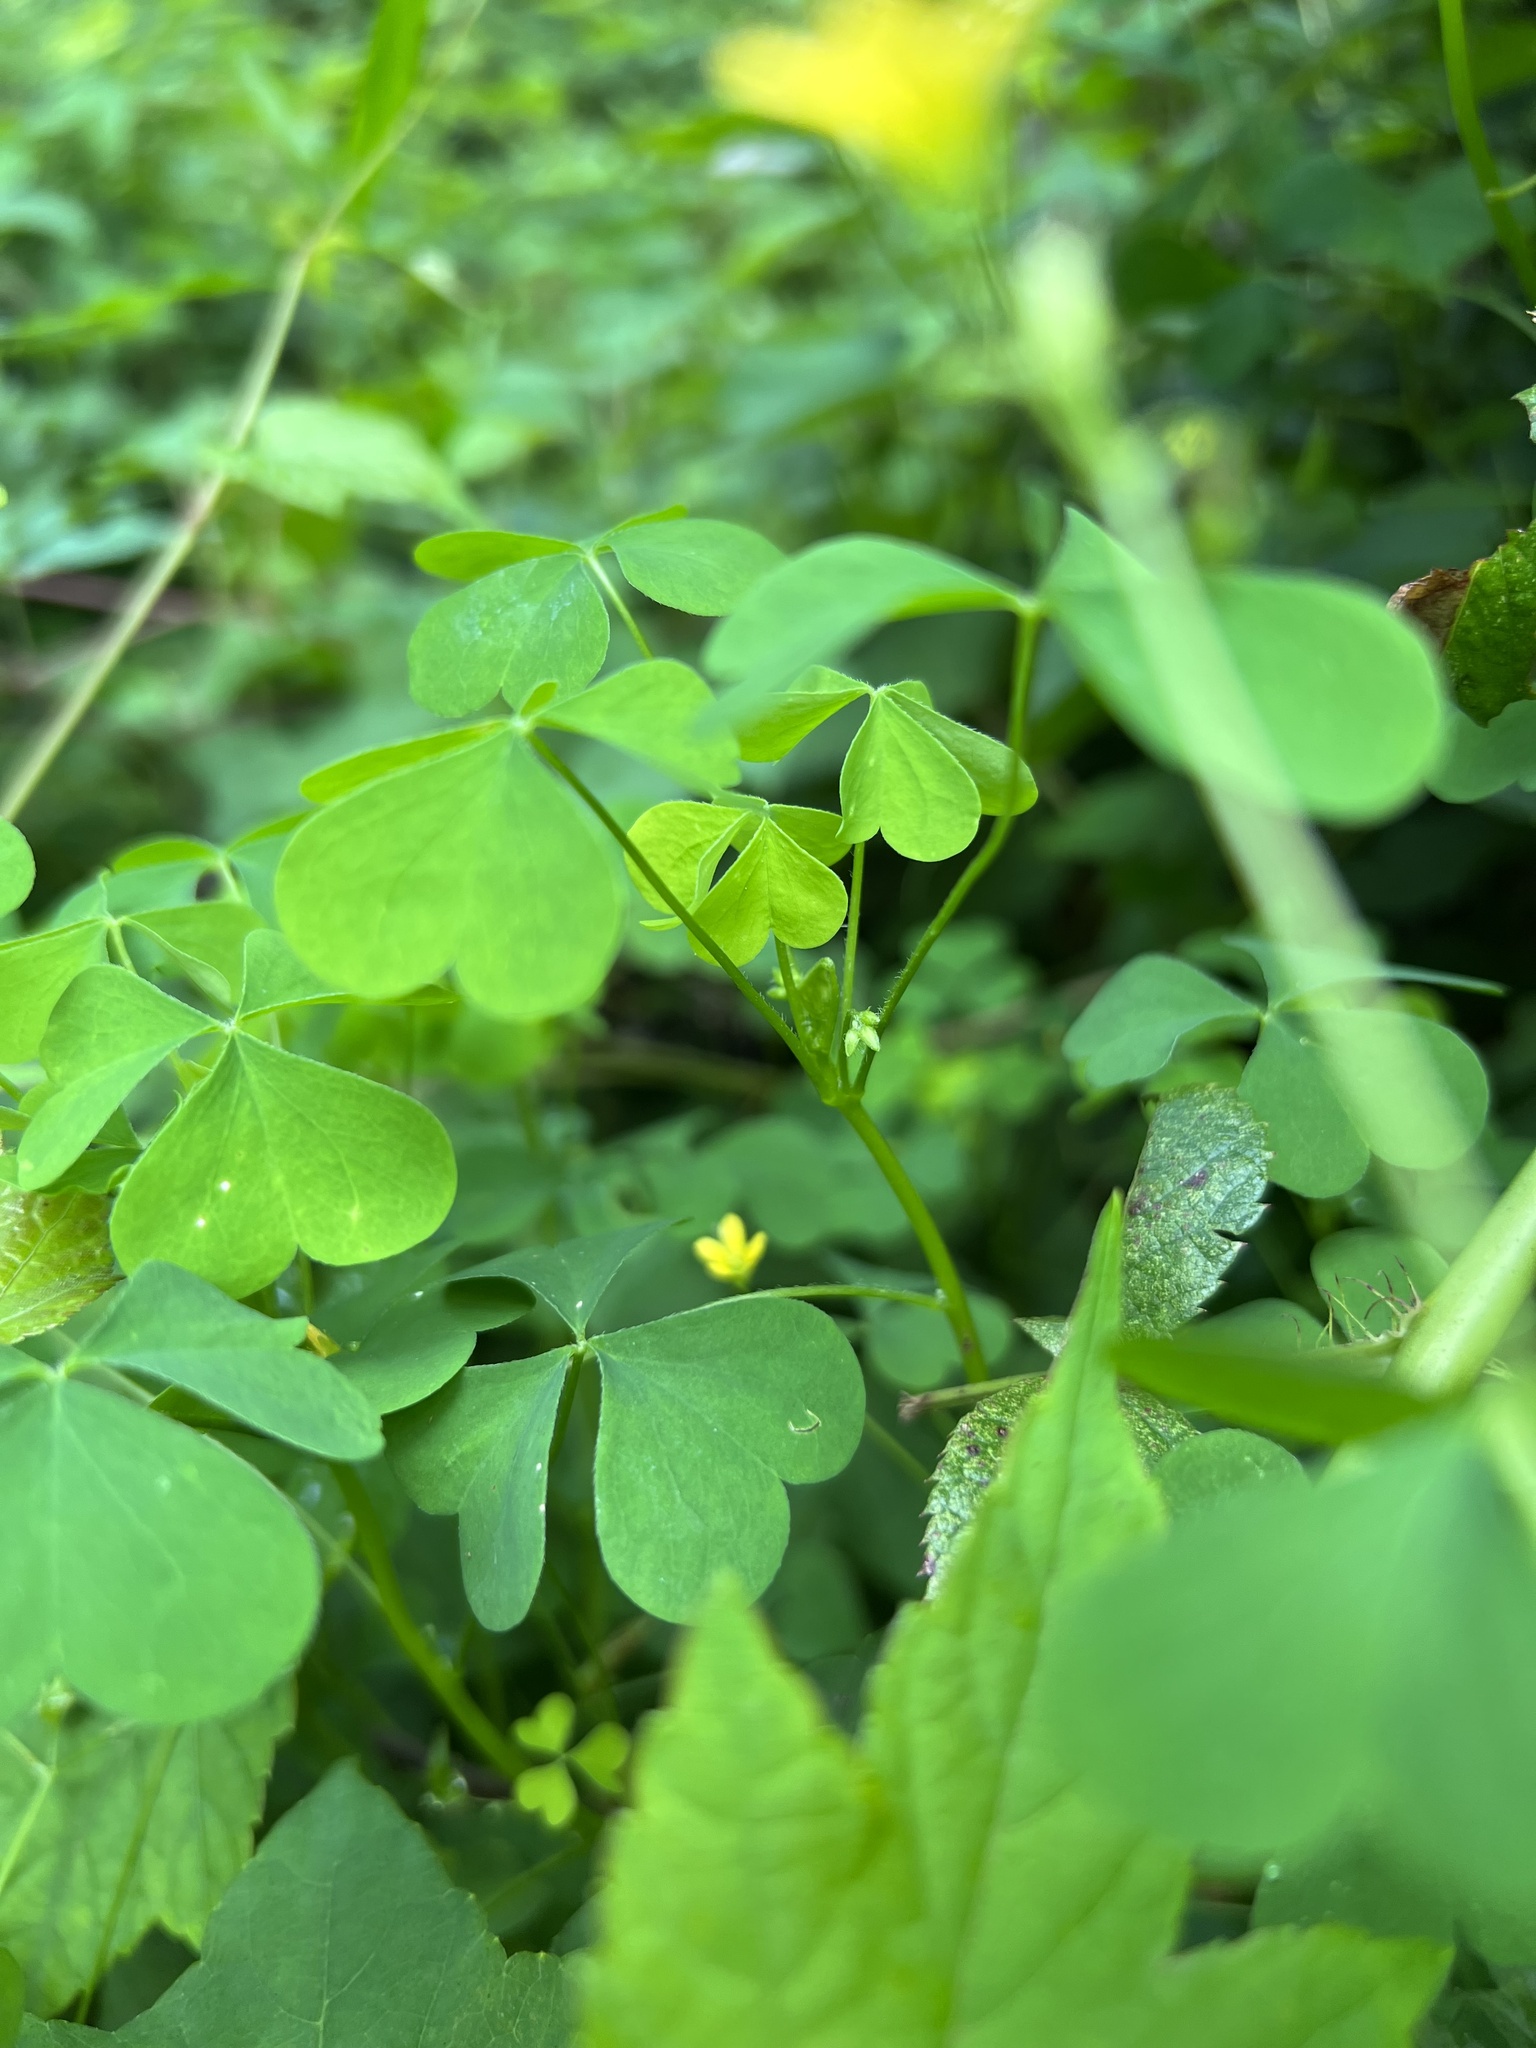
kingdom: Plantae
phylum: Tracheophyta
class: Magnoliopsida
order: Oxalidales
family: Oxalidaceae
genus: Oxalis
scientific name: Oxalis stricta
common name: Upright yellow-sorrel
